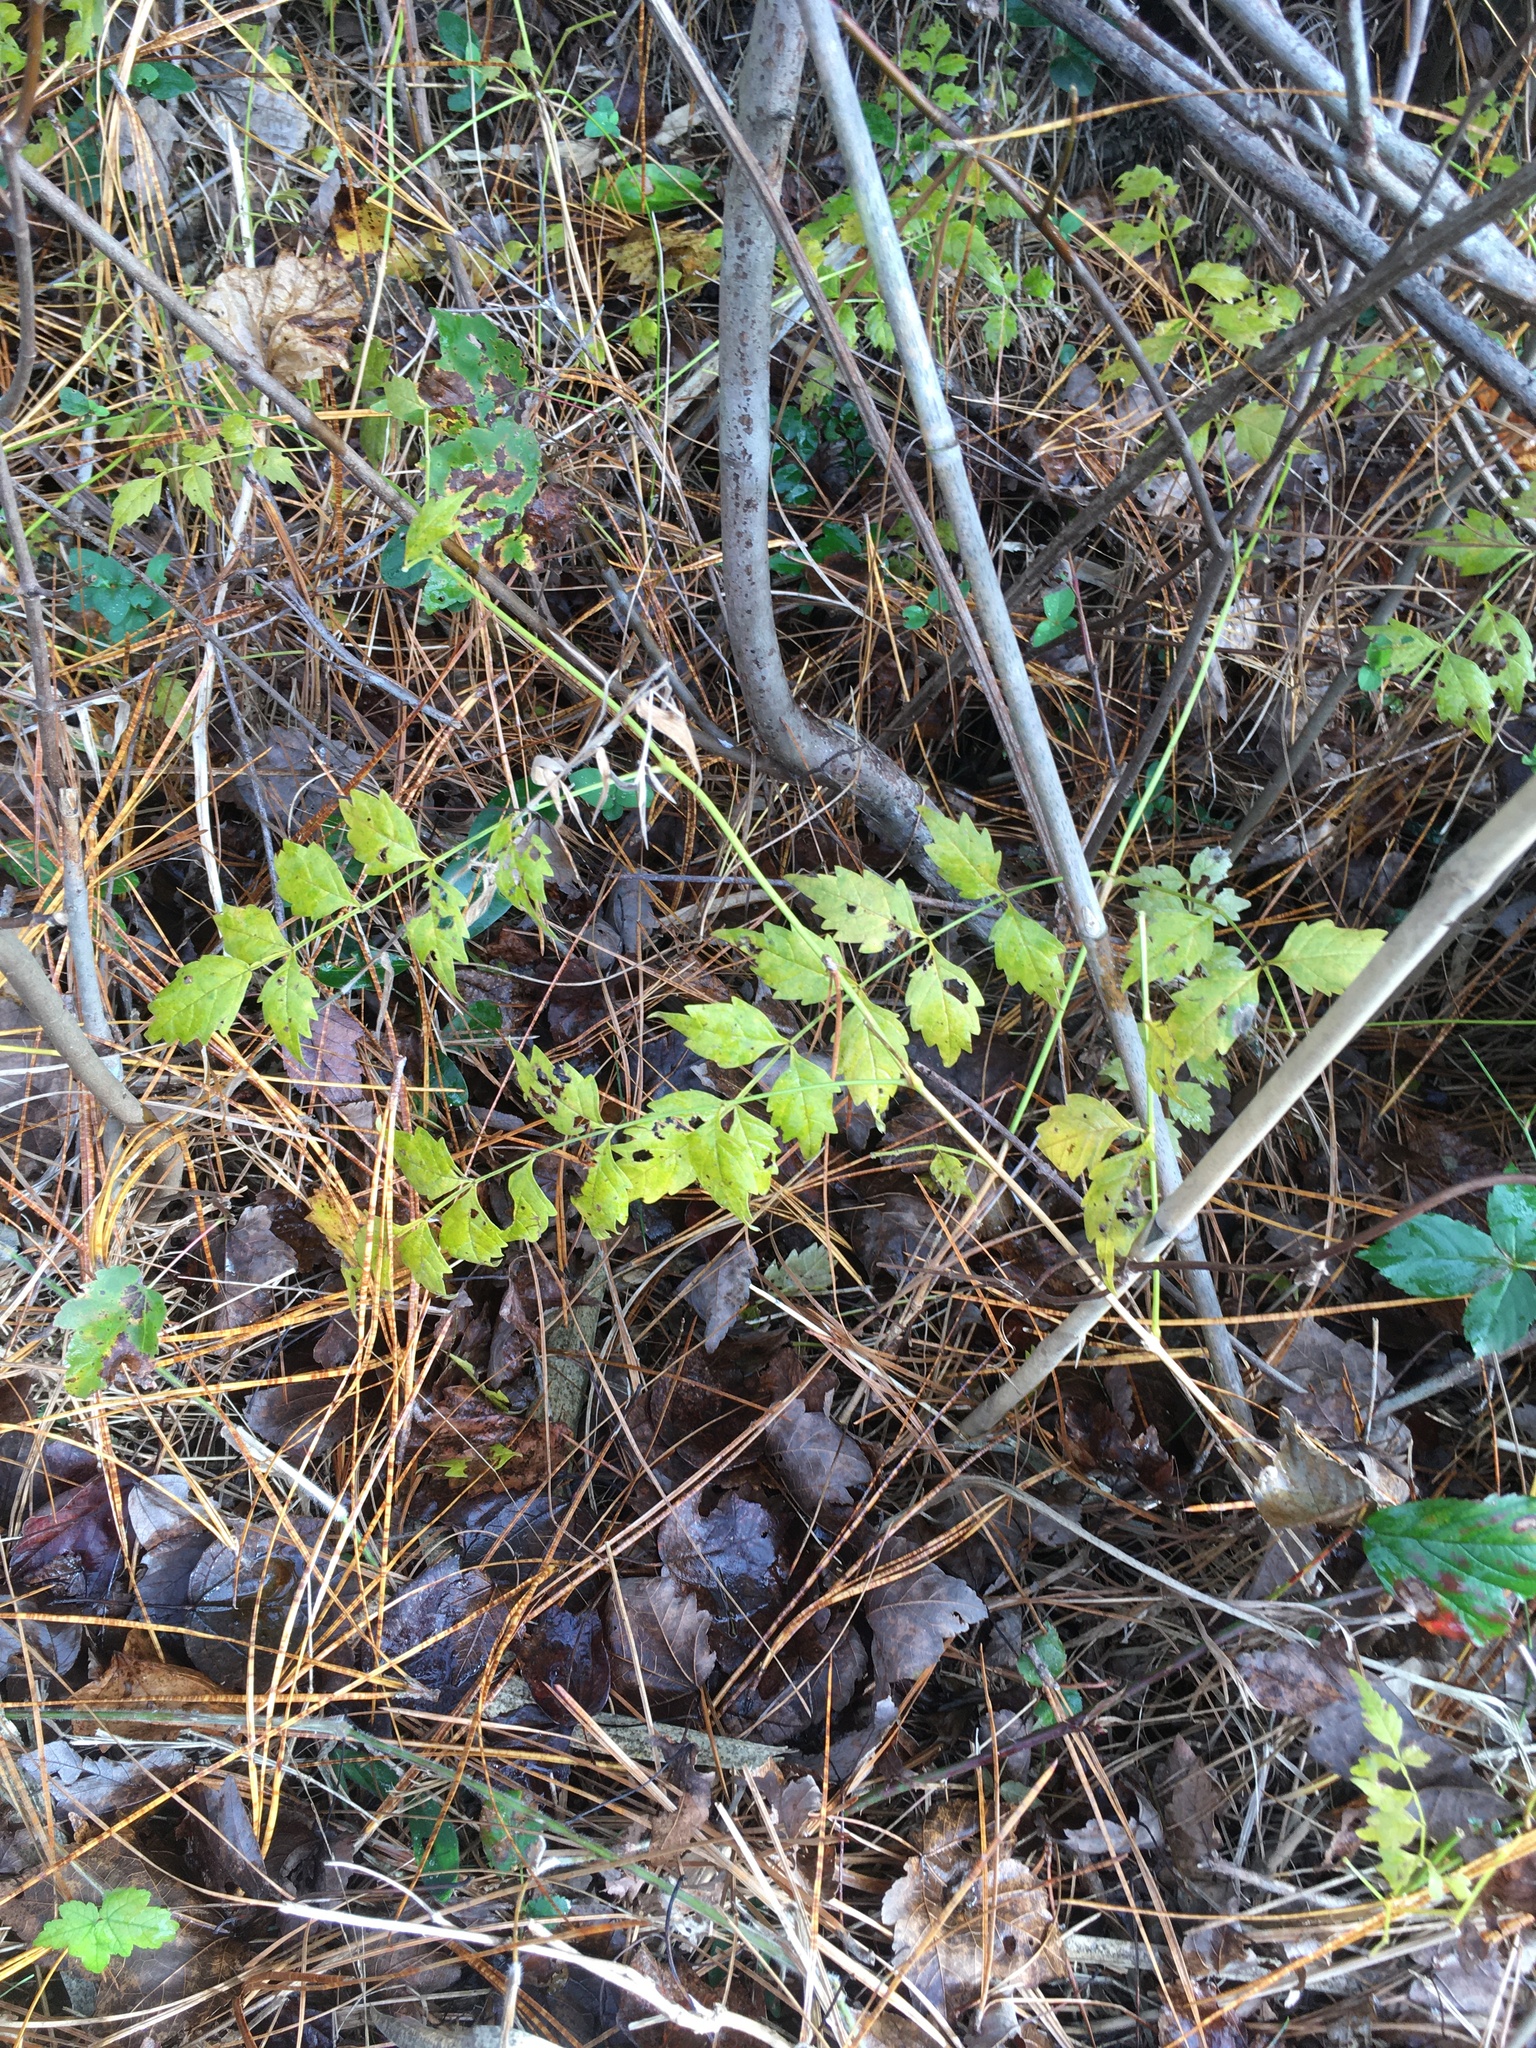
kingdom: Plantae
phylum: Tracheophyta
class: Magnoliopsida
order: Lamiales
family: Bignoniaceae
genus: Campsis
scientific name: Campsis radicans
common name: Trumpet-creeper
